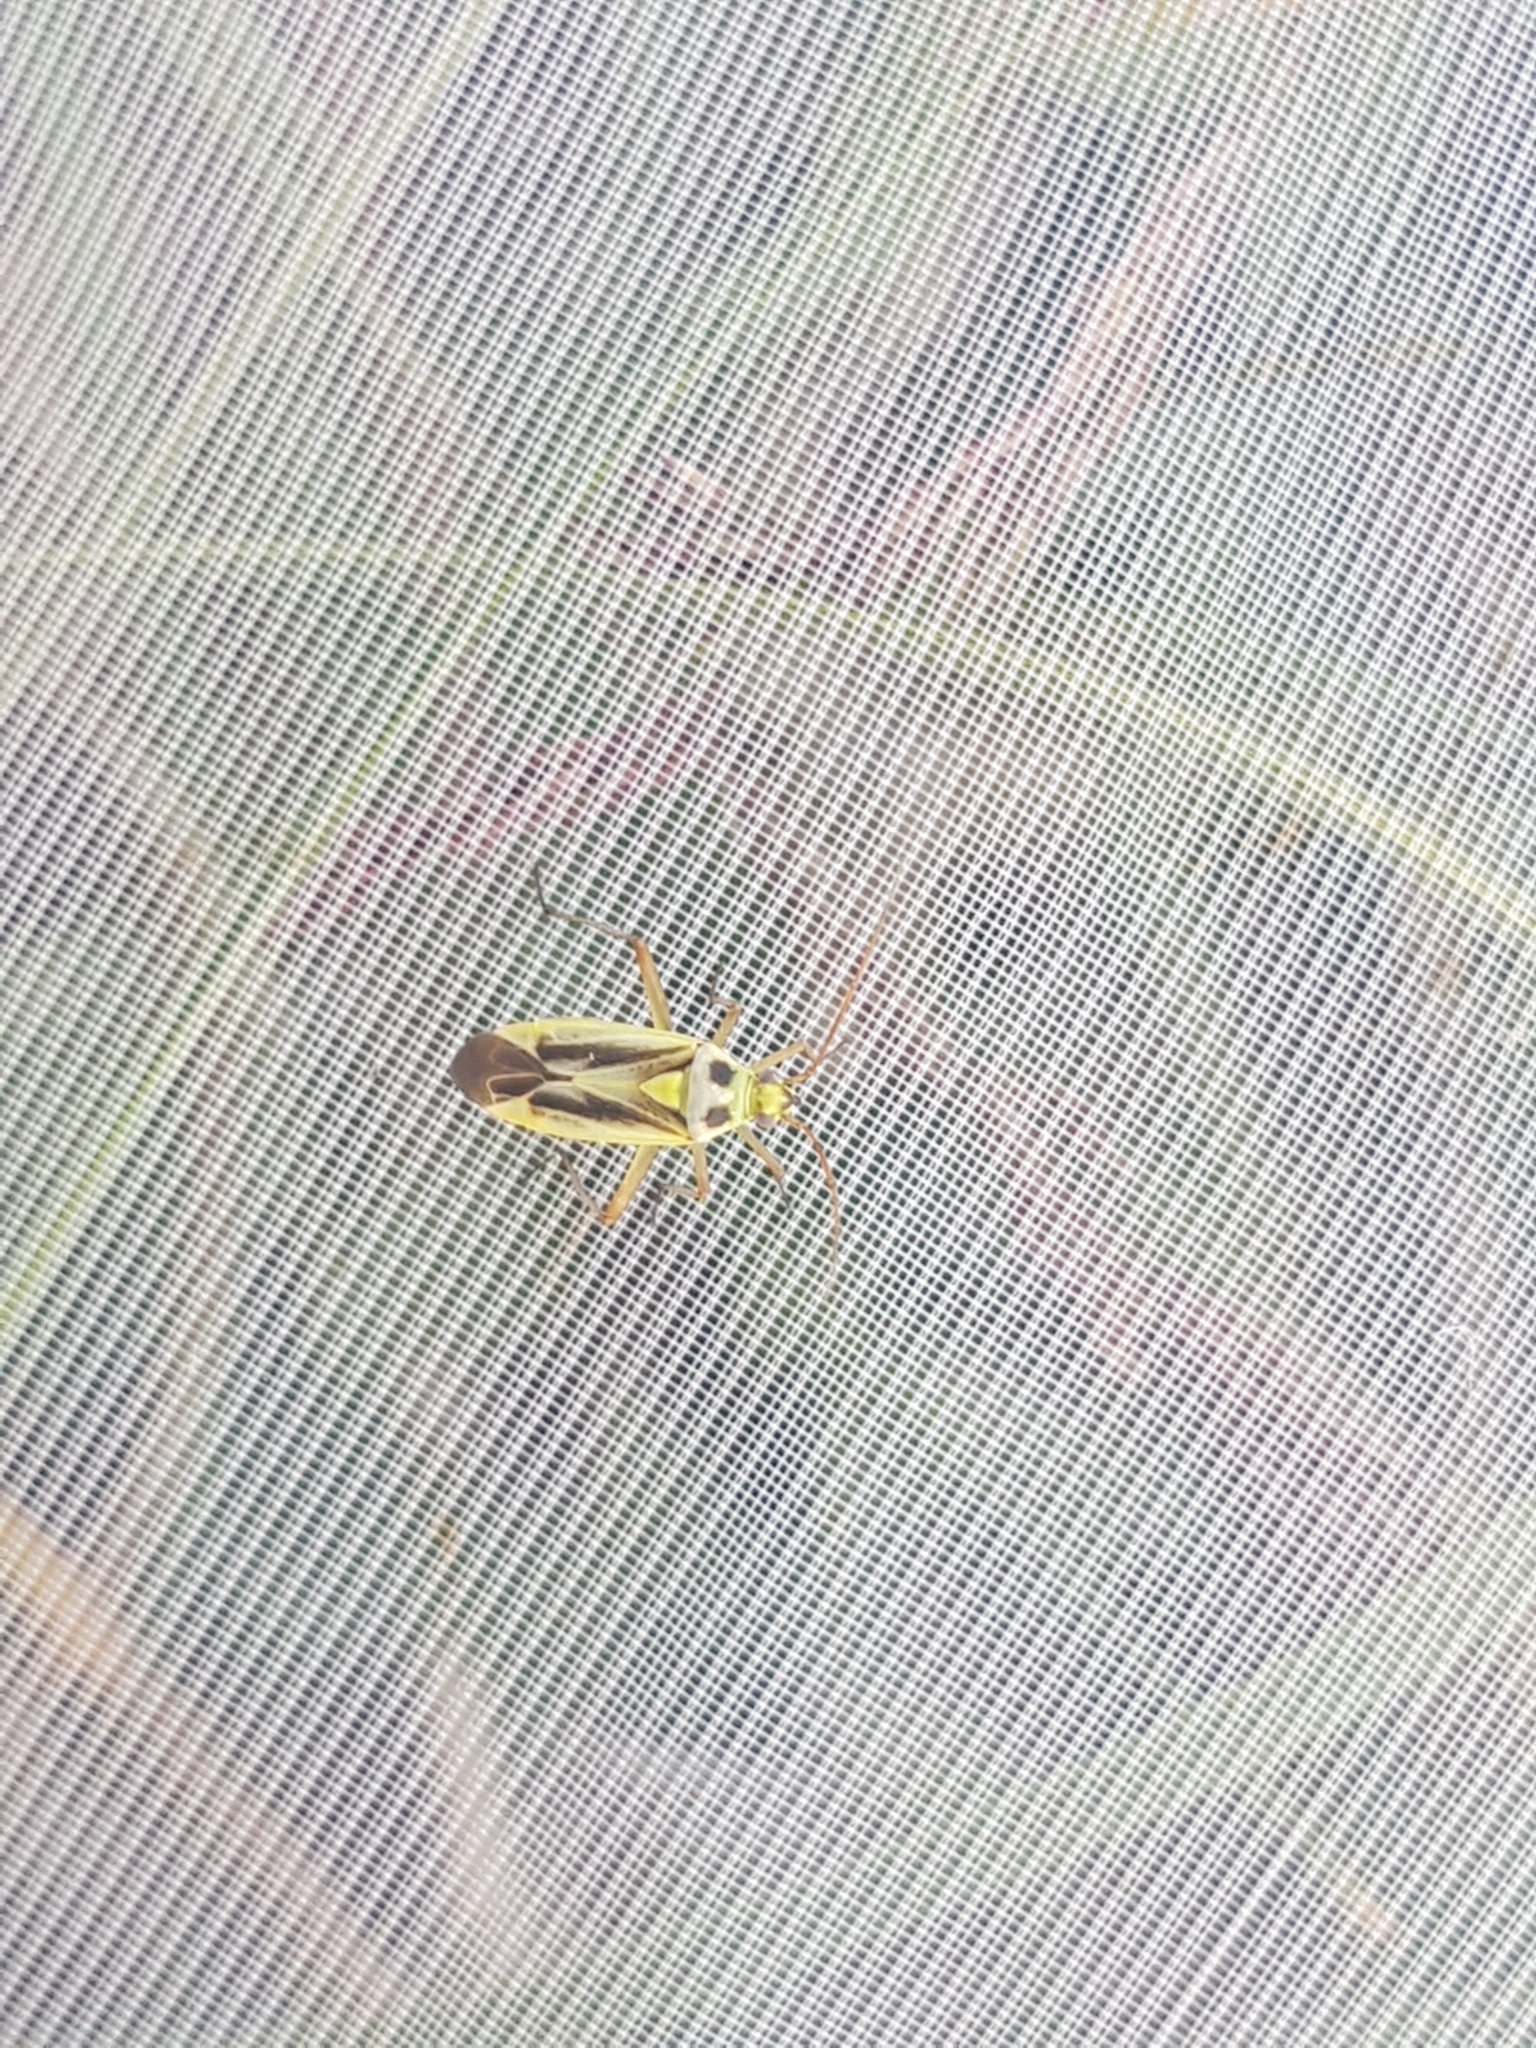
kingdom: Animalia
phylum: Arthropoda
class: Insecta
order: Hemiptera
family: Miridae
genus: Stenotus
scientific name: Stenotus binotatus
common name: Plant bug
